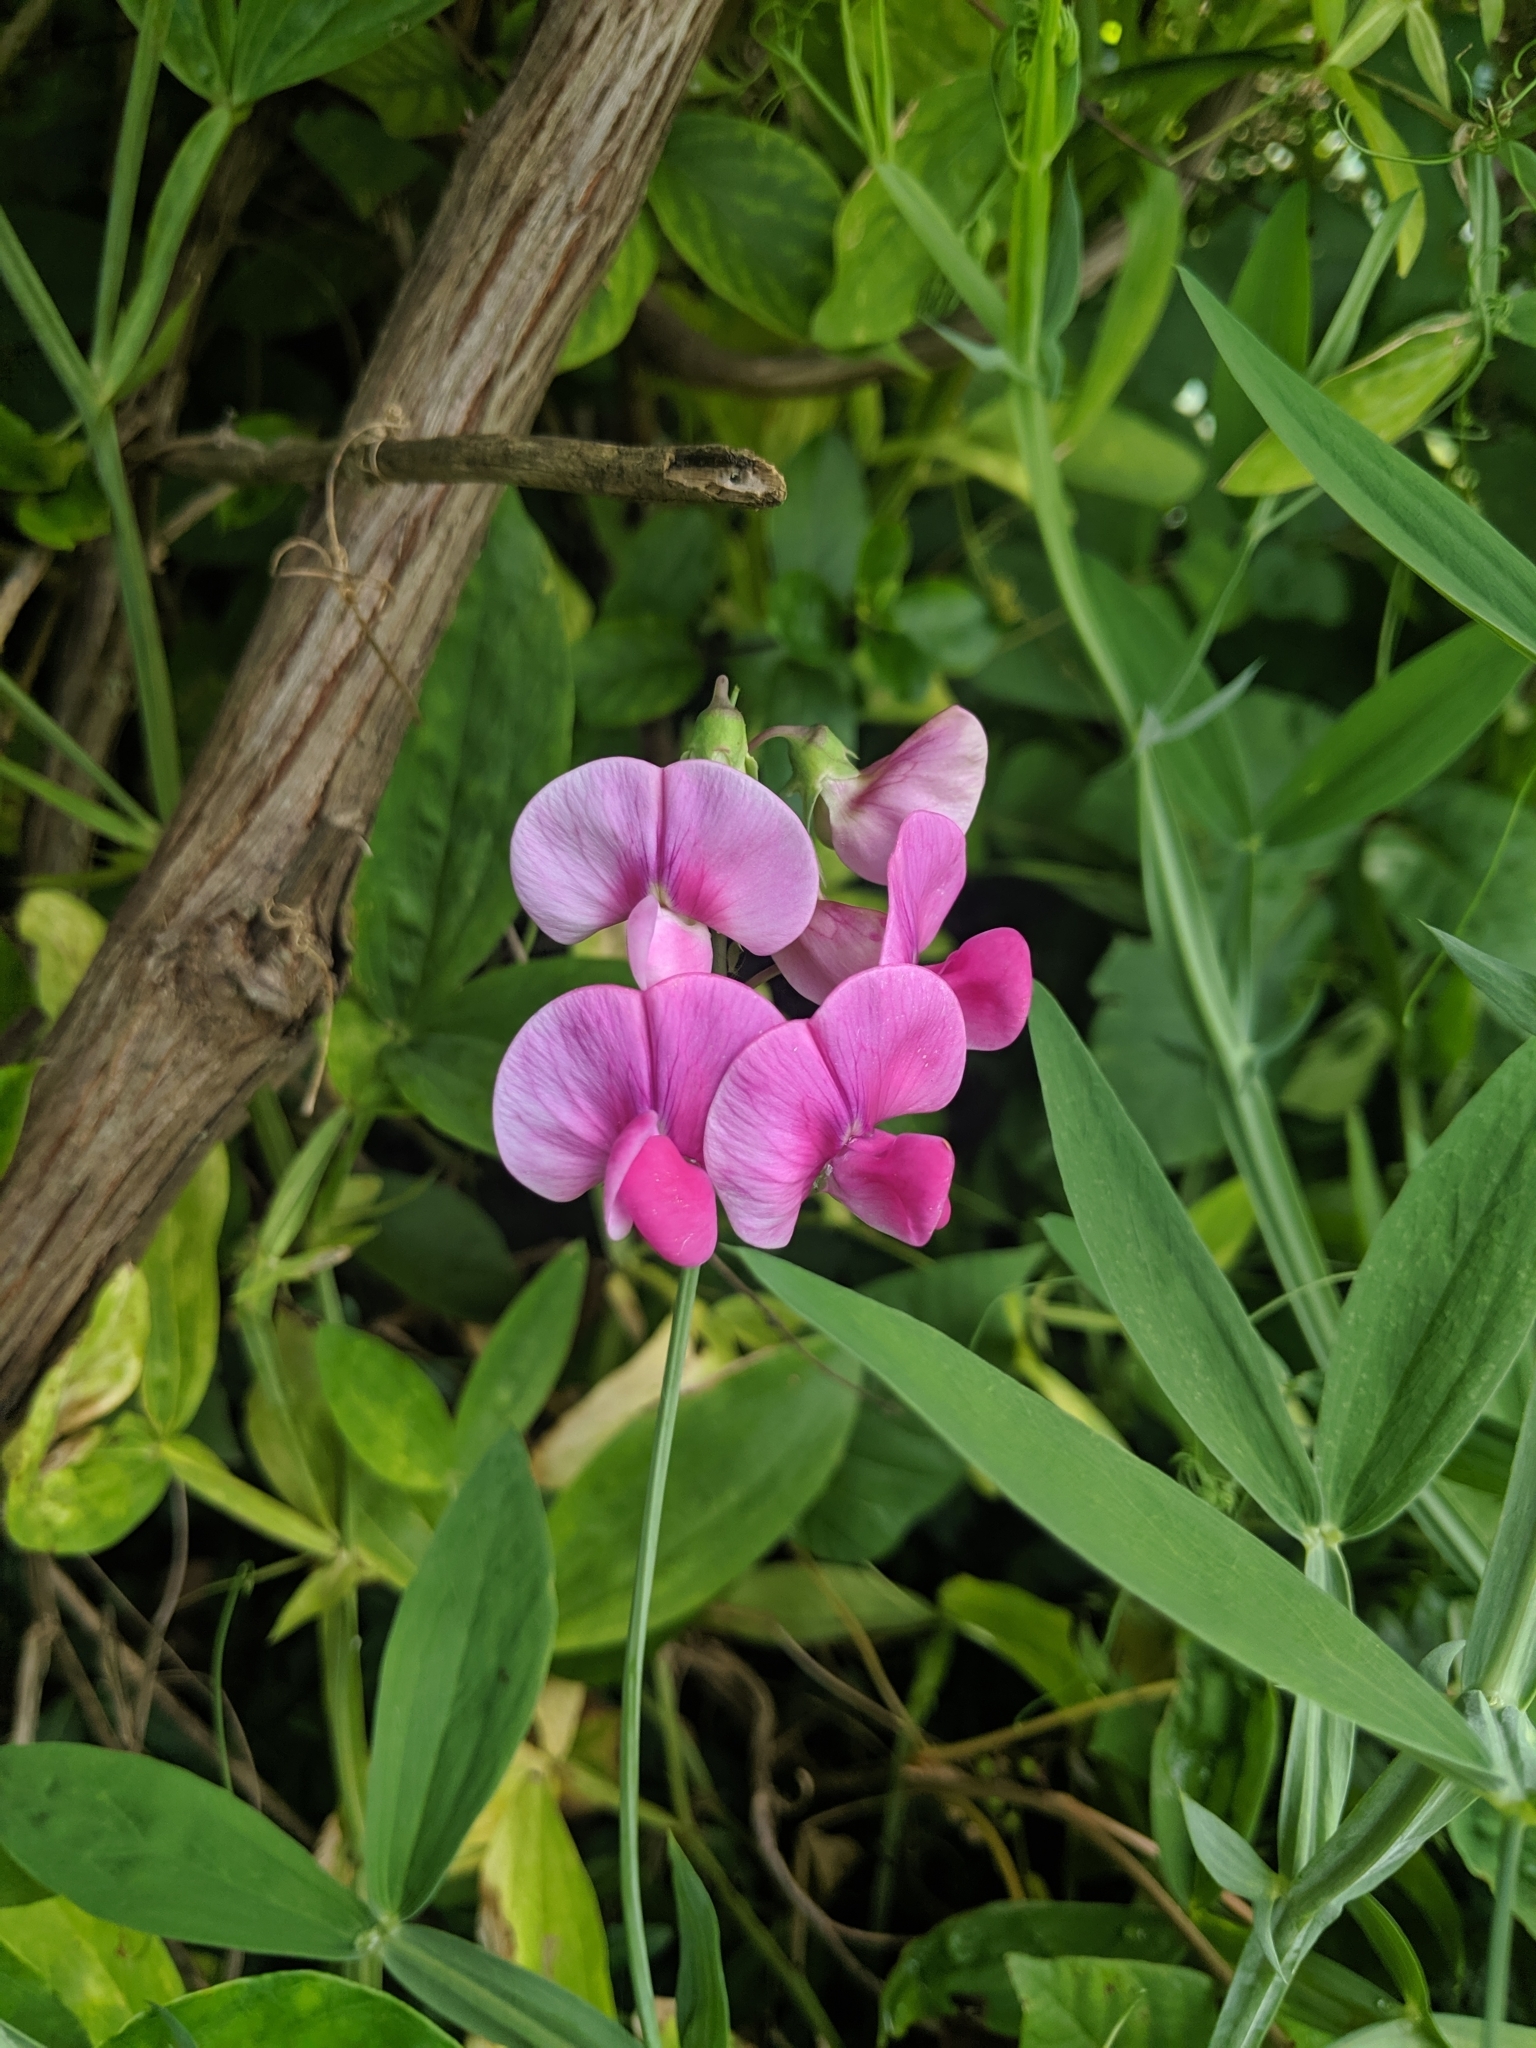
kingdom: Plantae
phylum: Tracheophyta
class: Magnoliopsida
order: Fabales
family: Fabaceae
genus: Lathyrus
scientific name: Lathyrus latifolius
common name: Perennial pea
